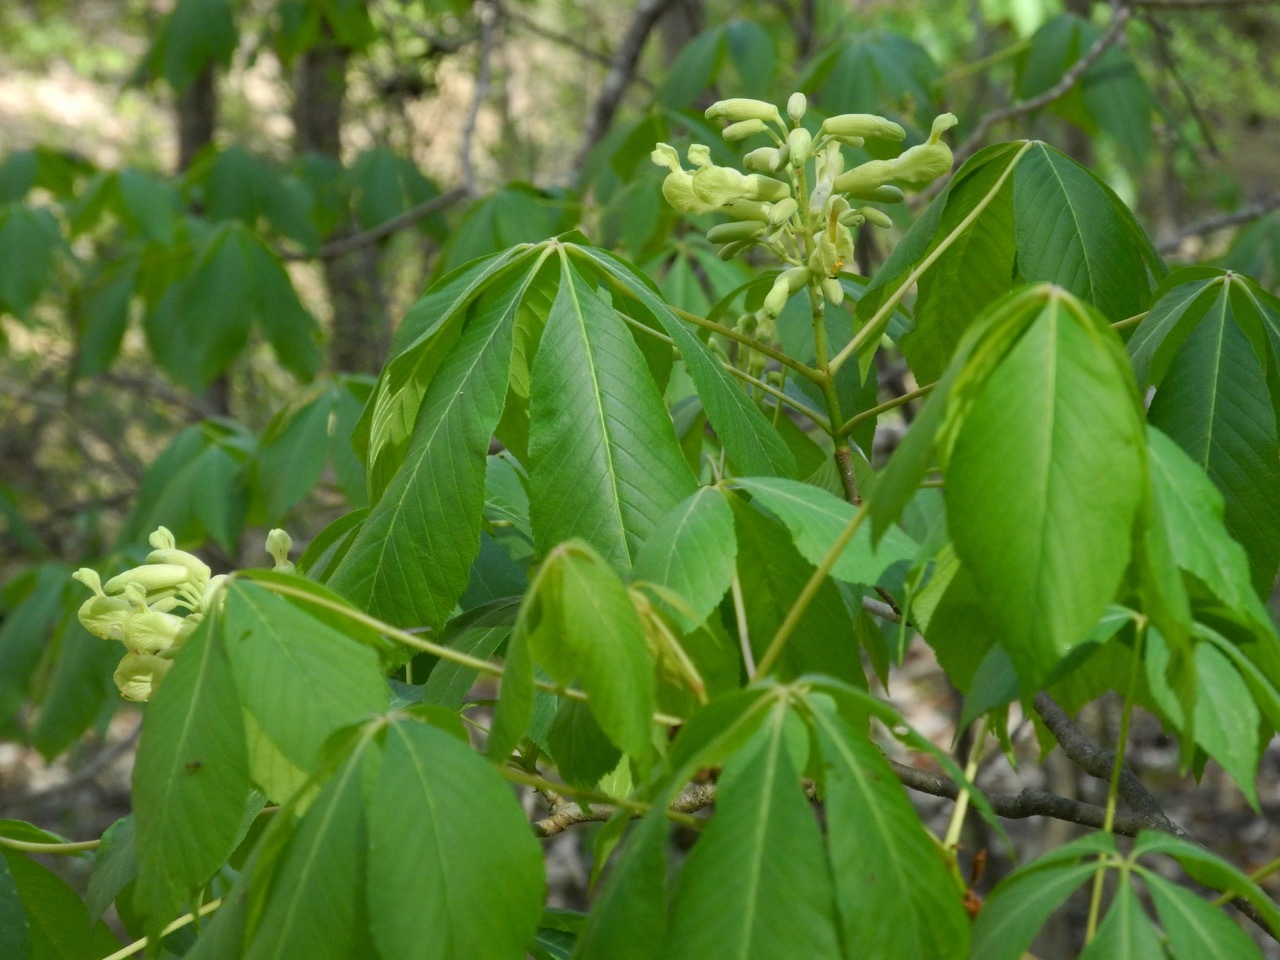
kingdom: Plantae
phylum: Tracheophyta
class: Magnoliopsida
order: Sapindales
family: Sapindaceae
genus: Aesculus
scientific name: Aesculus sylvatica
